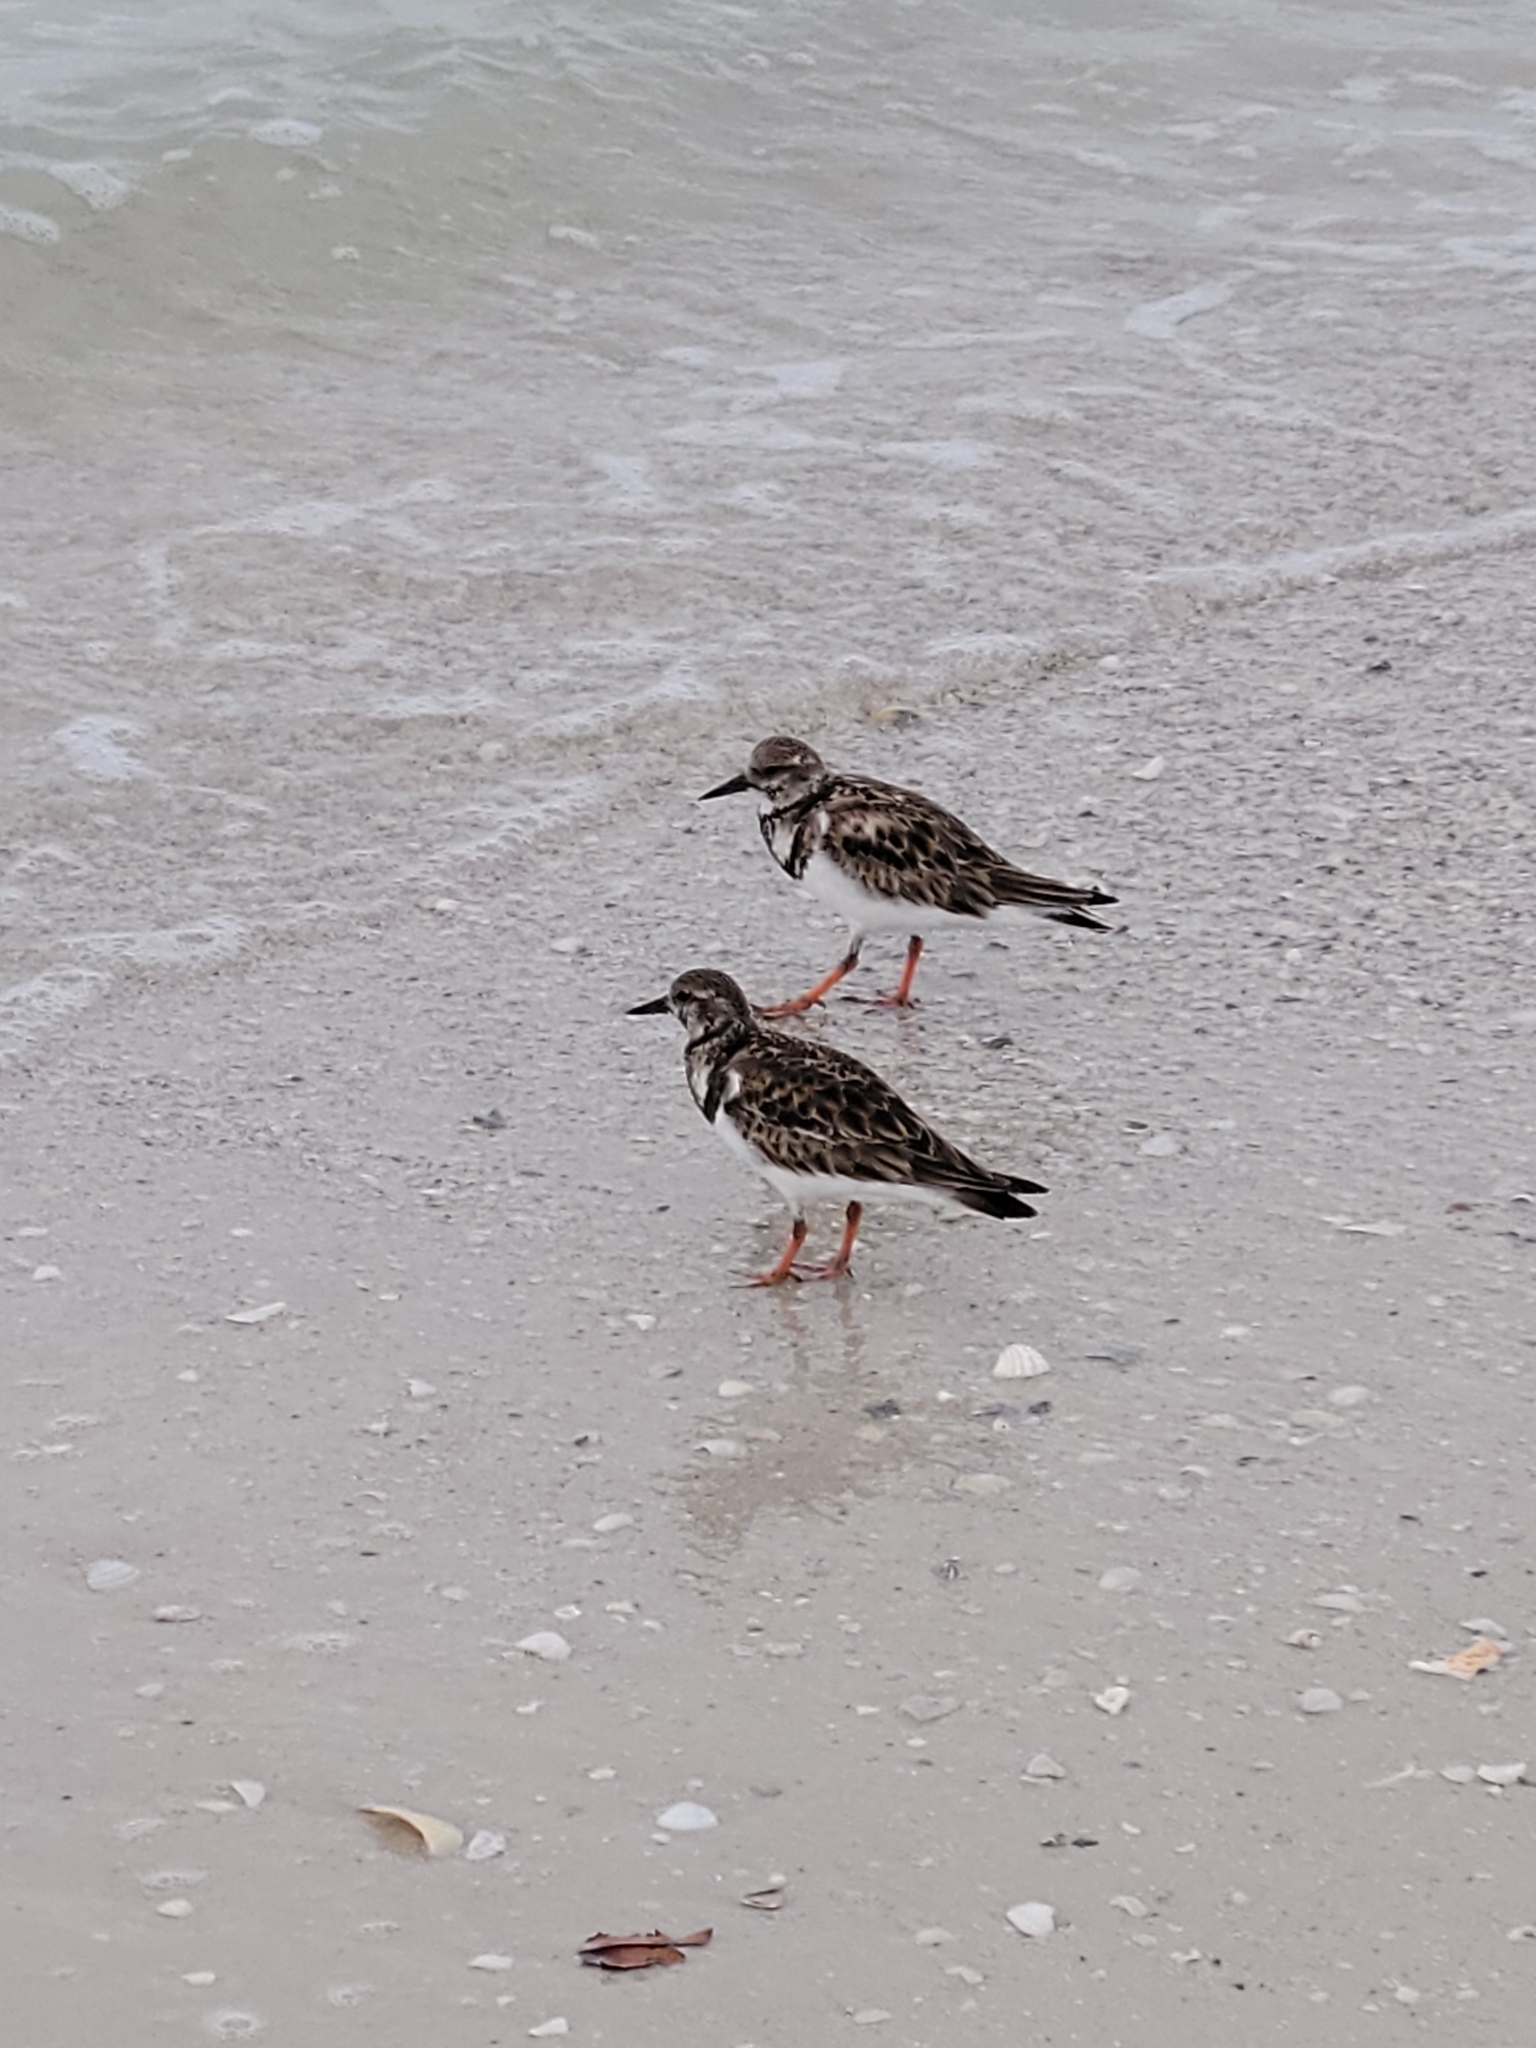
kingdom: Animalia
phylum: Chordata
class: Aves
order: Charadriiformes
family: Scolopacidae
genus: Arenaria
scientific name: Arenaria interpres
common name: Ruddy turnstone
